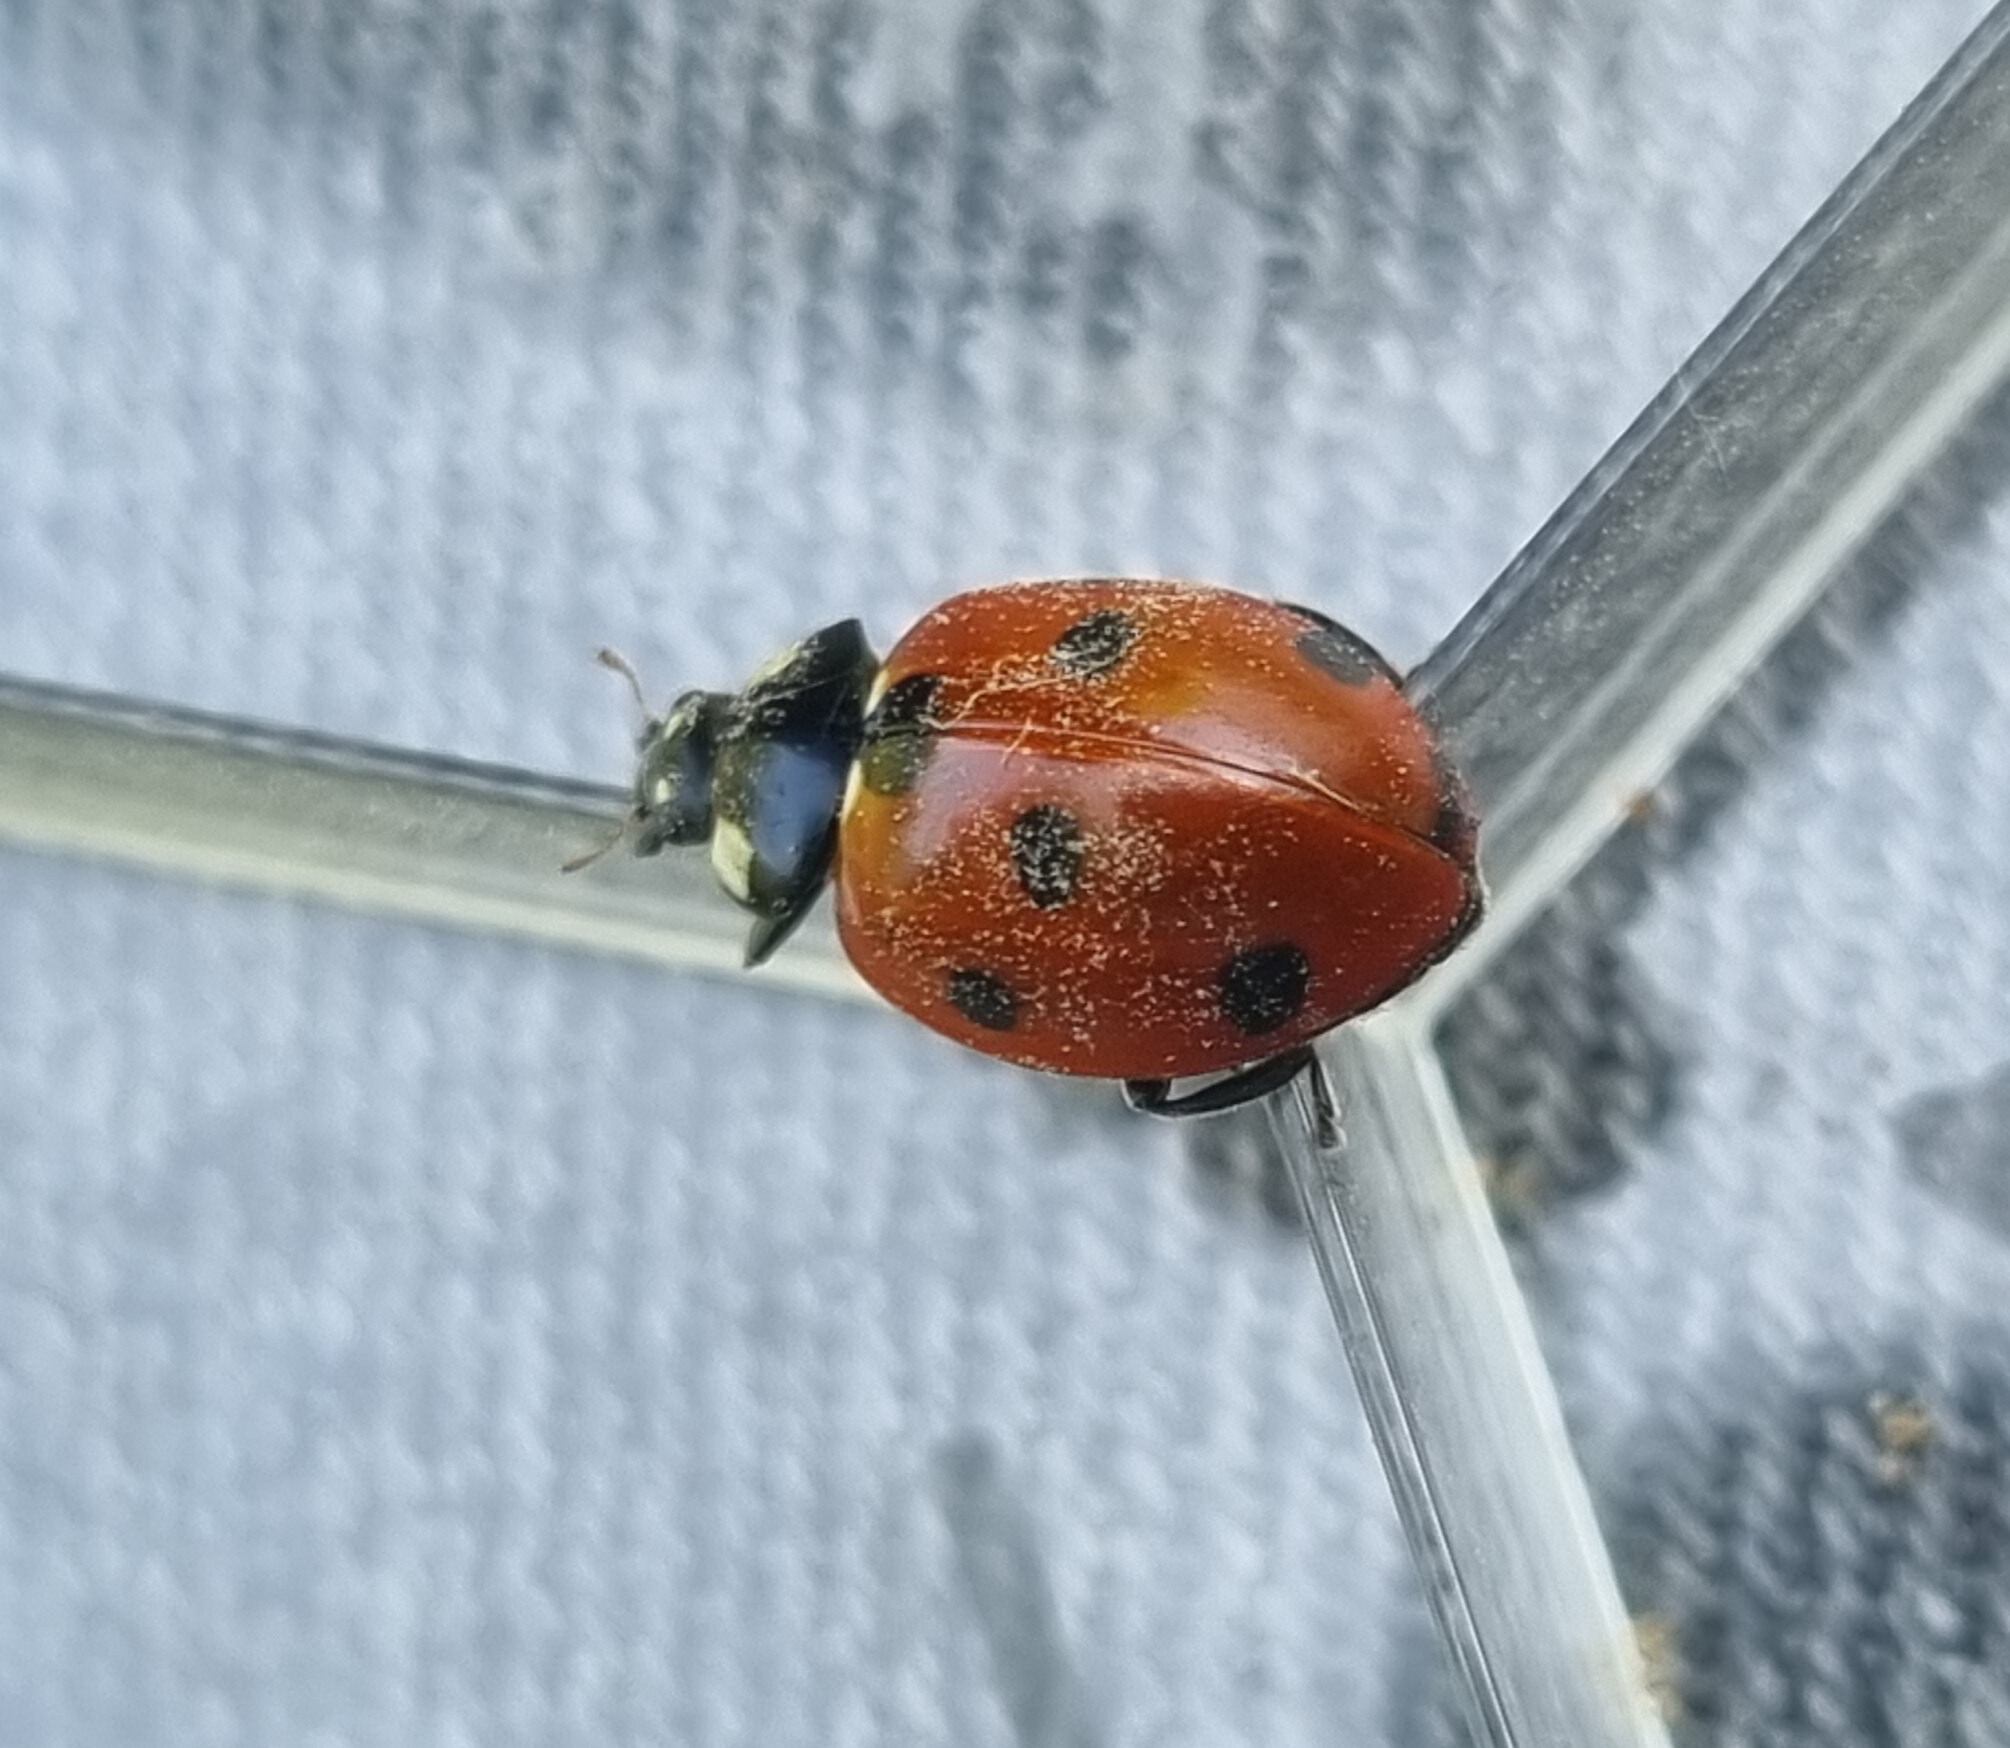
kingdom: Animalia
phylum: Arthropoda
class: Insecta
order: Coleoptera
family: Coccinellidae
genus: Coccinella
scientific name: Coccinella septempunctata
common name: Sevenspotted lady beetle
